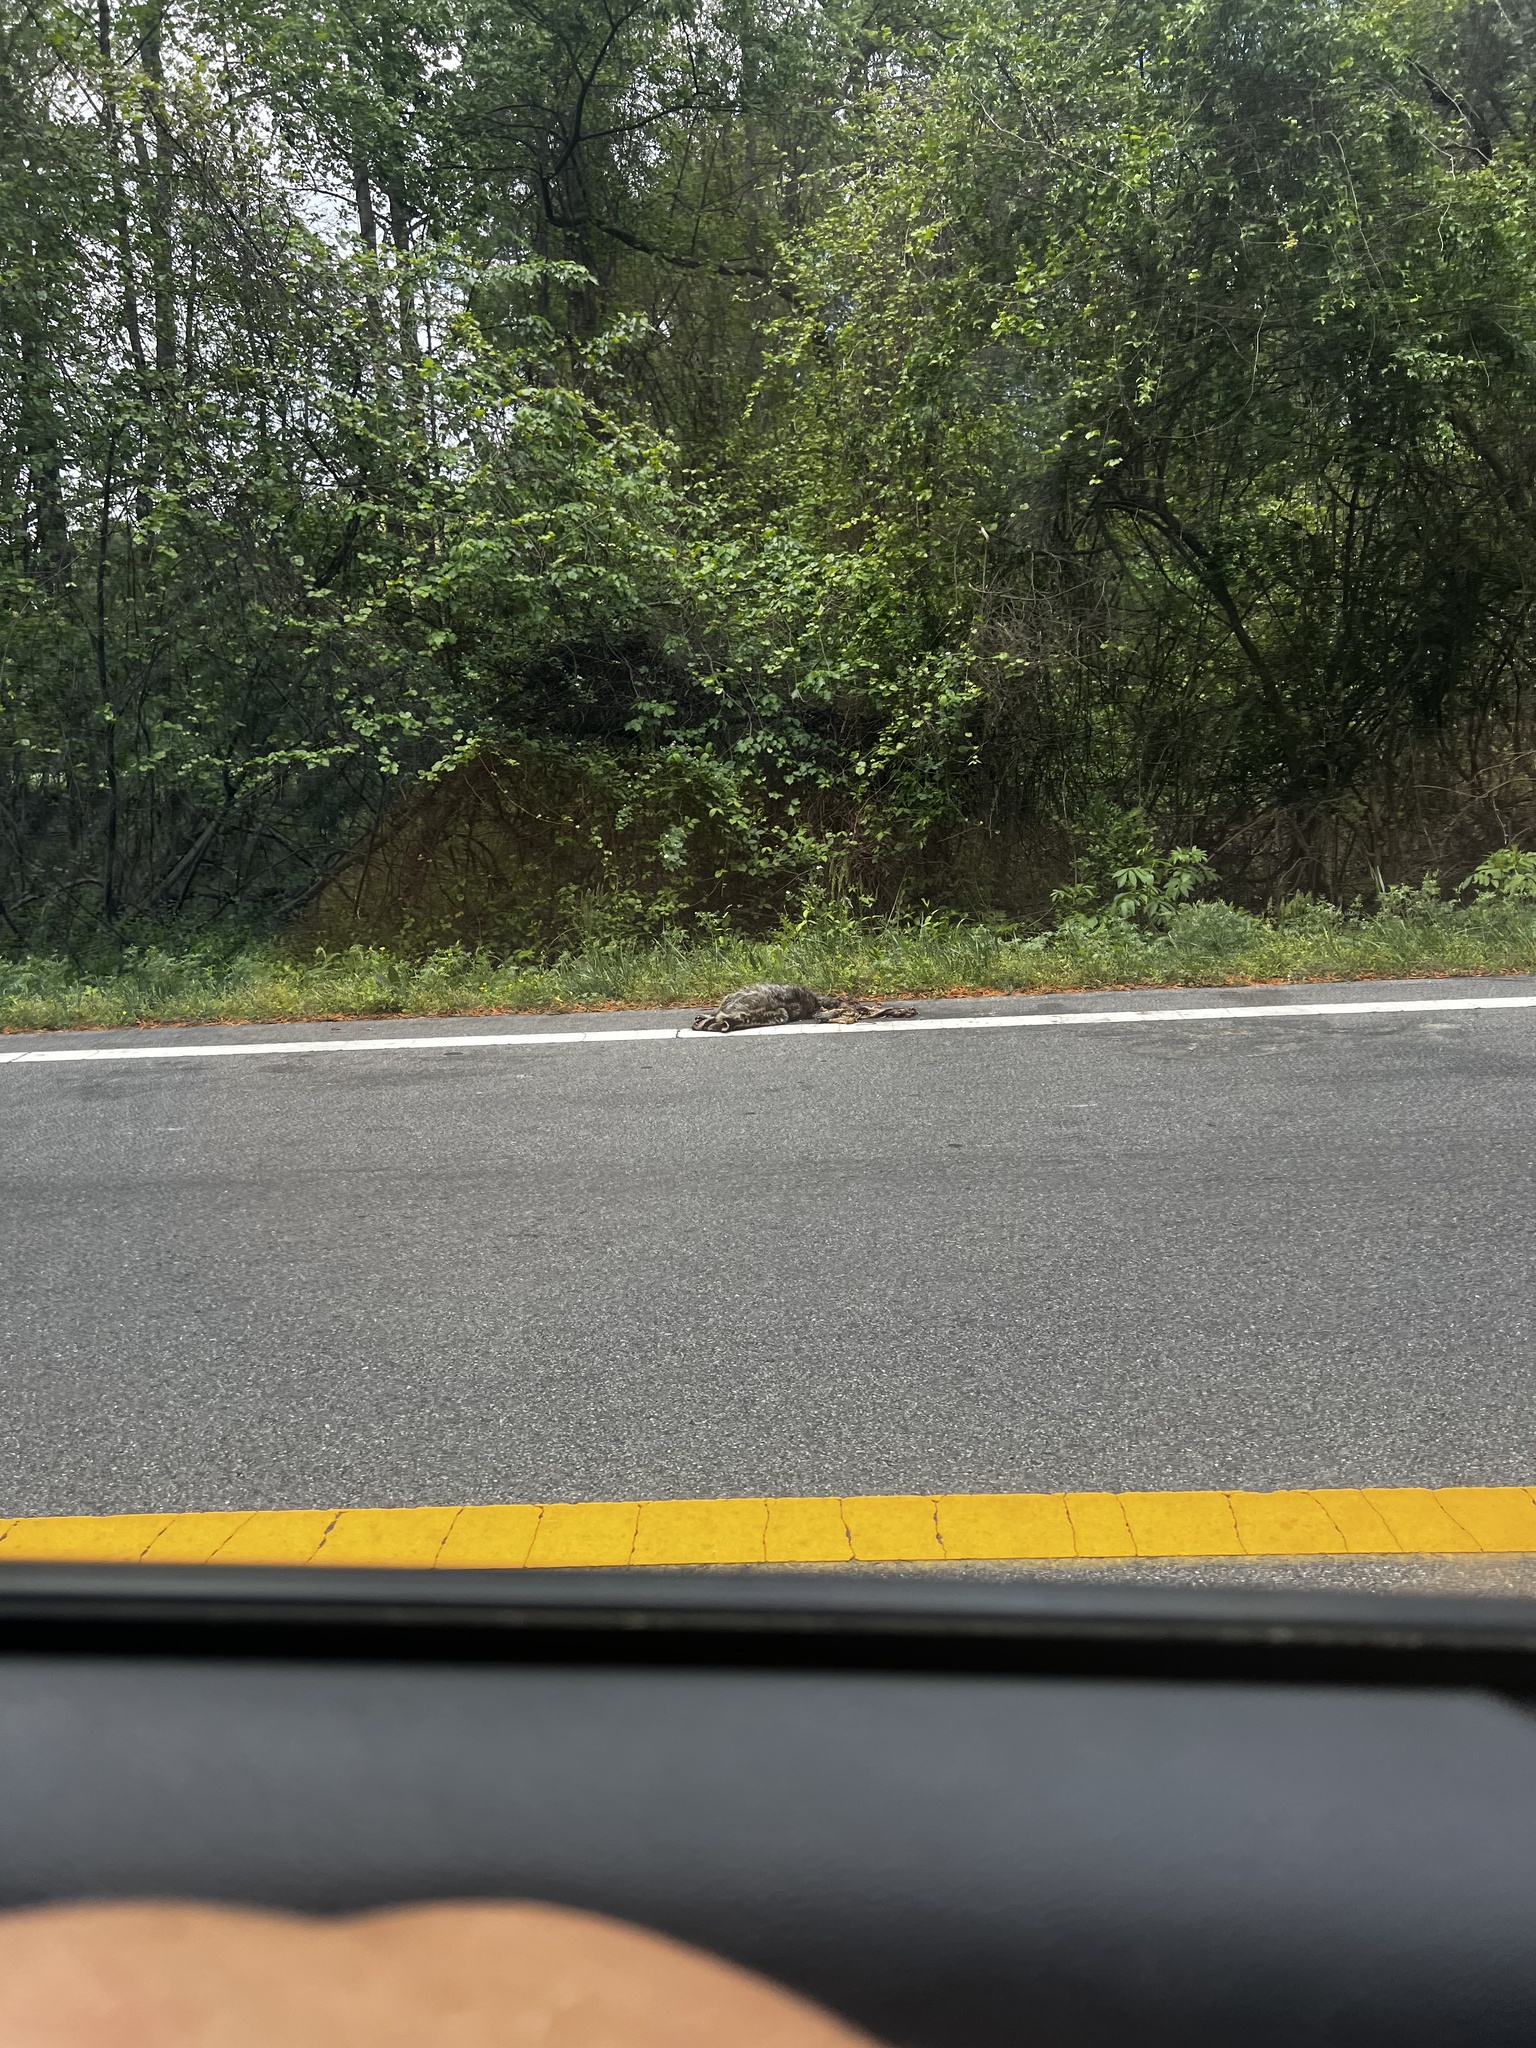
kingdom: Animalia
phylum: Chordata
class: Mammalia
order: Carnivora
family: Procyonidae
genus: Procyon
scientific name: Procyon lotor
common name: Raccoon
